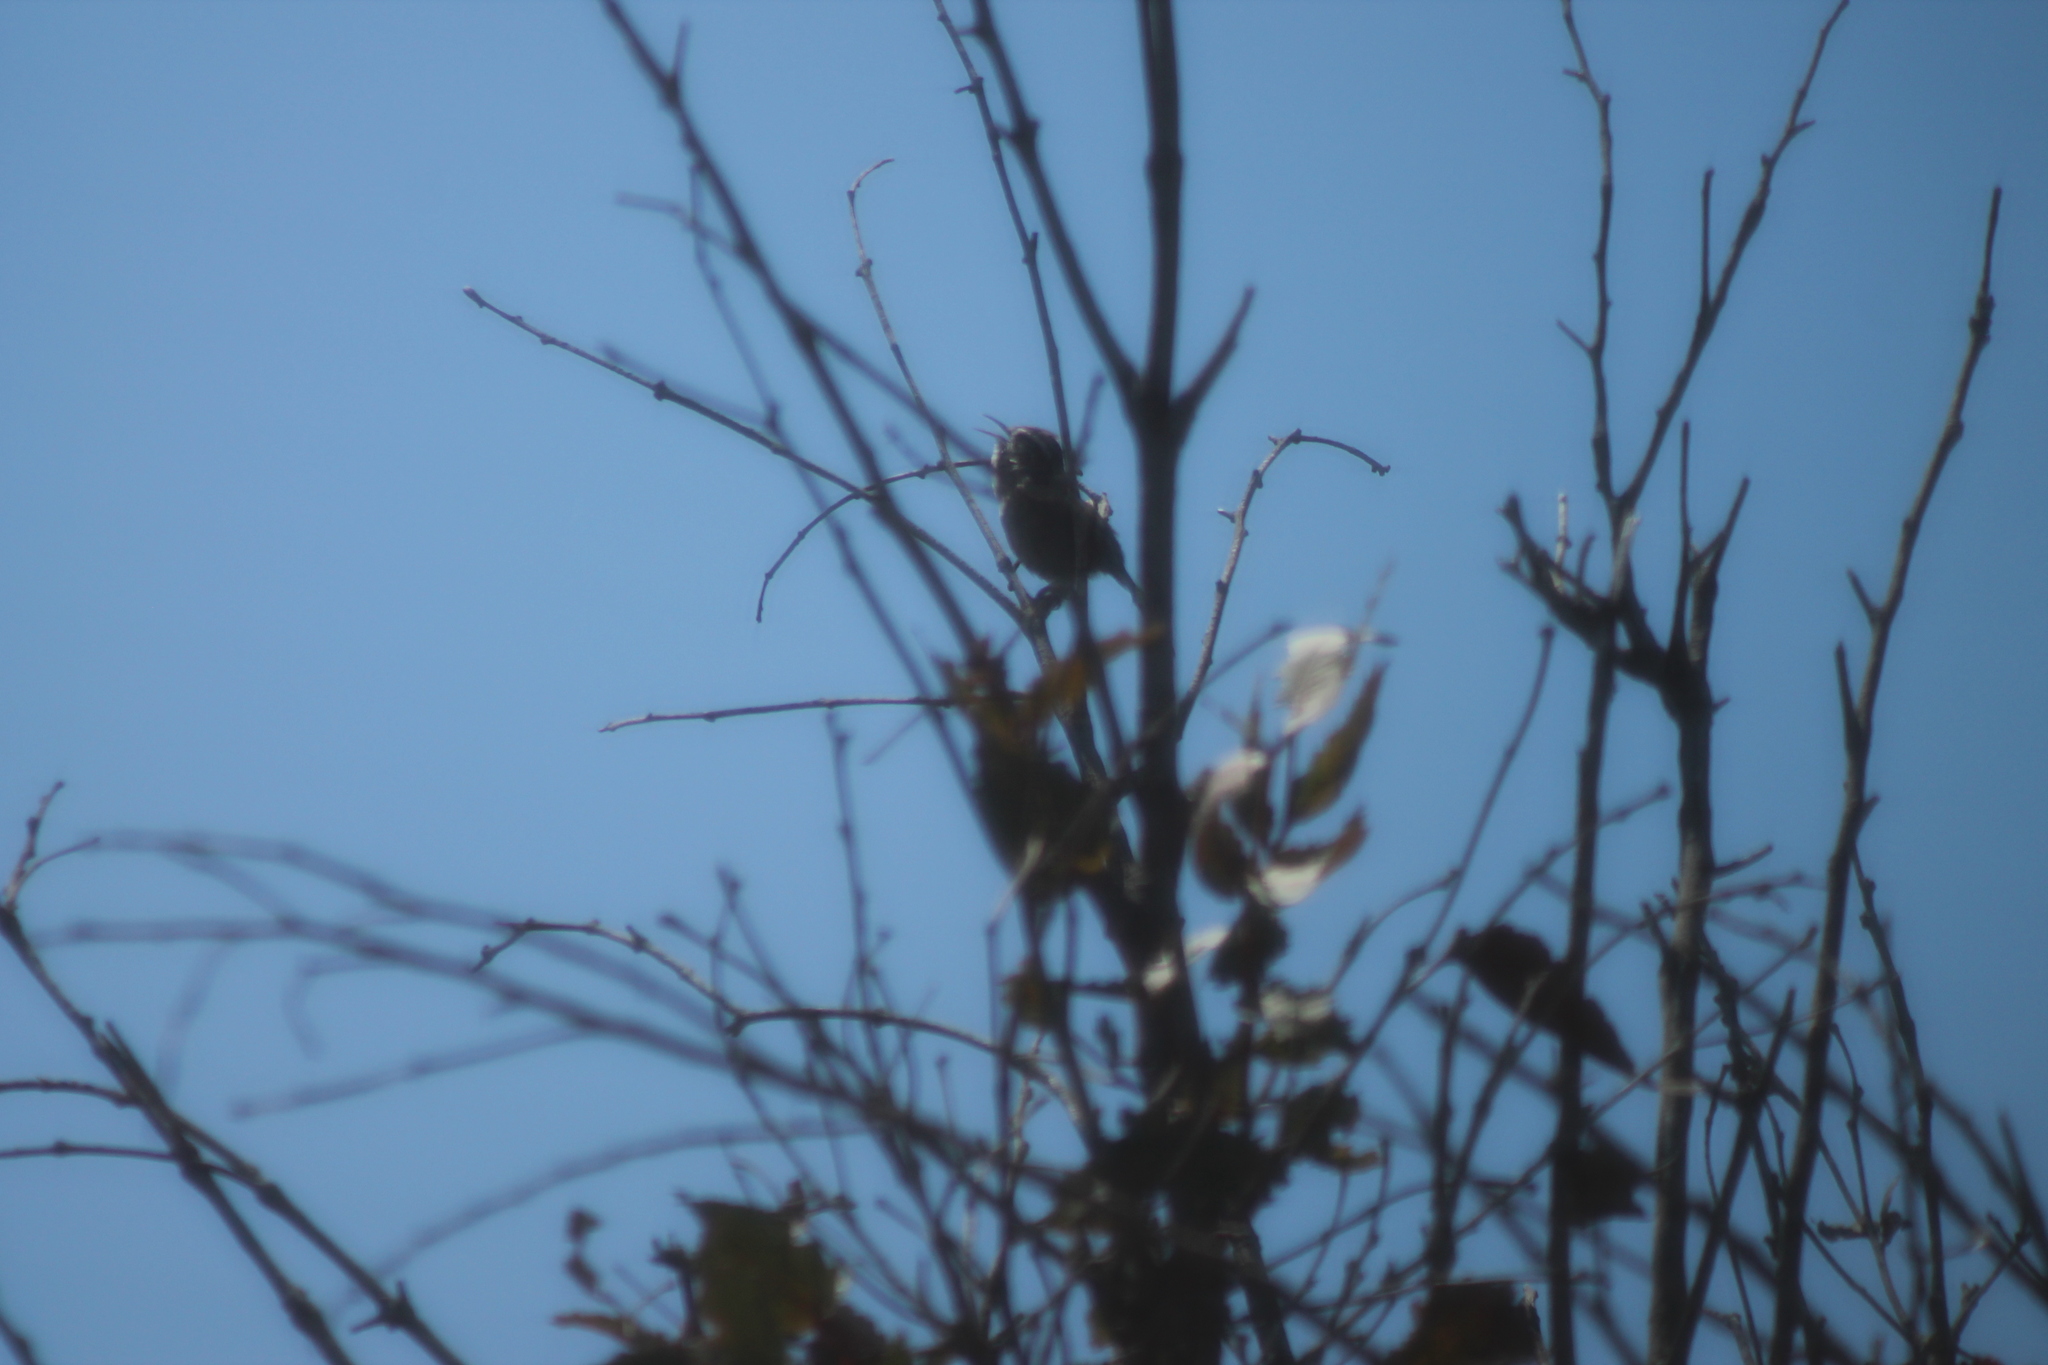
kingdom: Animalia
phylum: Chordata
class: Aves
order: Passeriformes
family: Troglodytidae
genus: Thryomanes
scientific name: Thryomanes bewickii
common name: Bewick's wren
